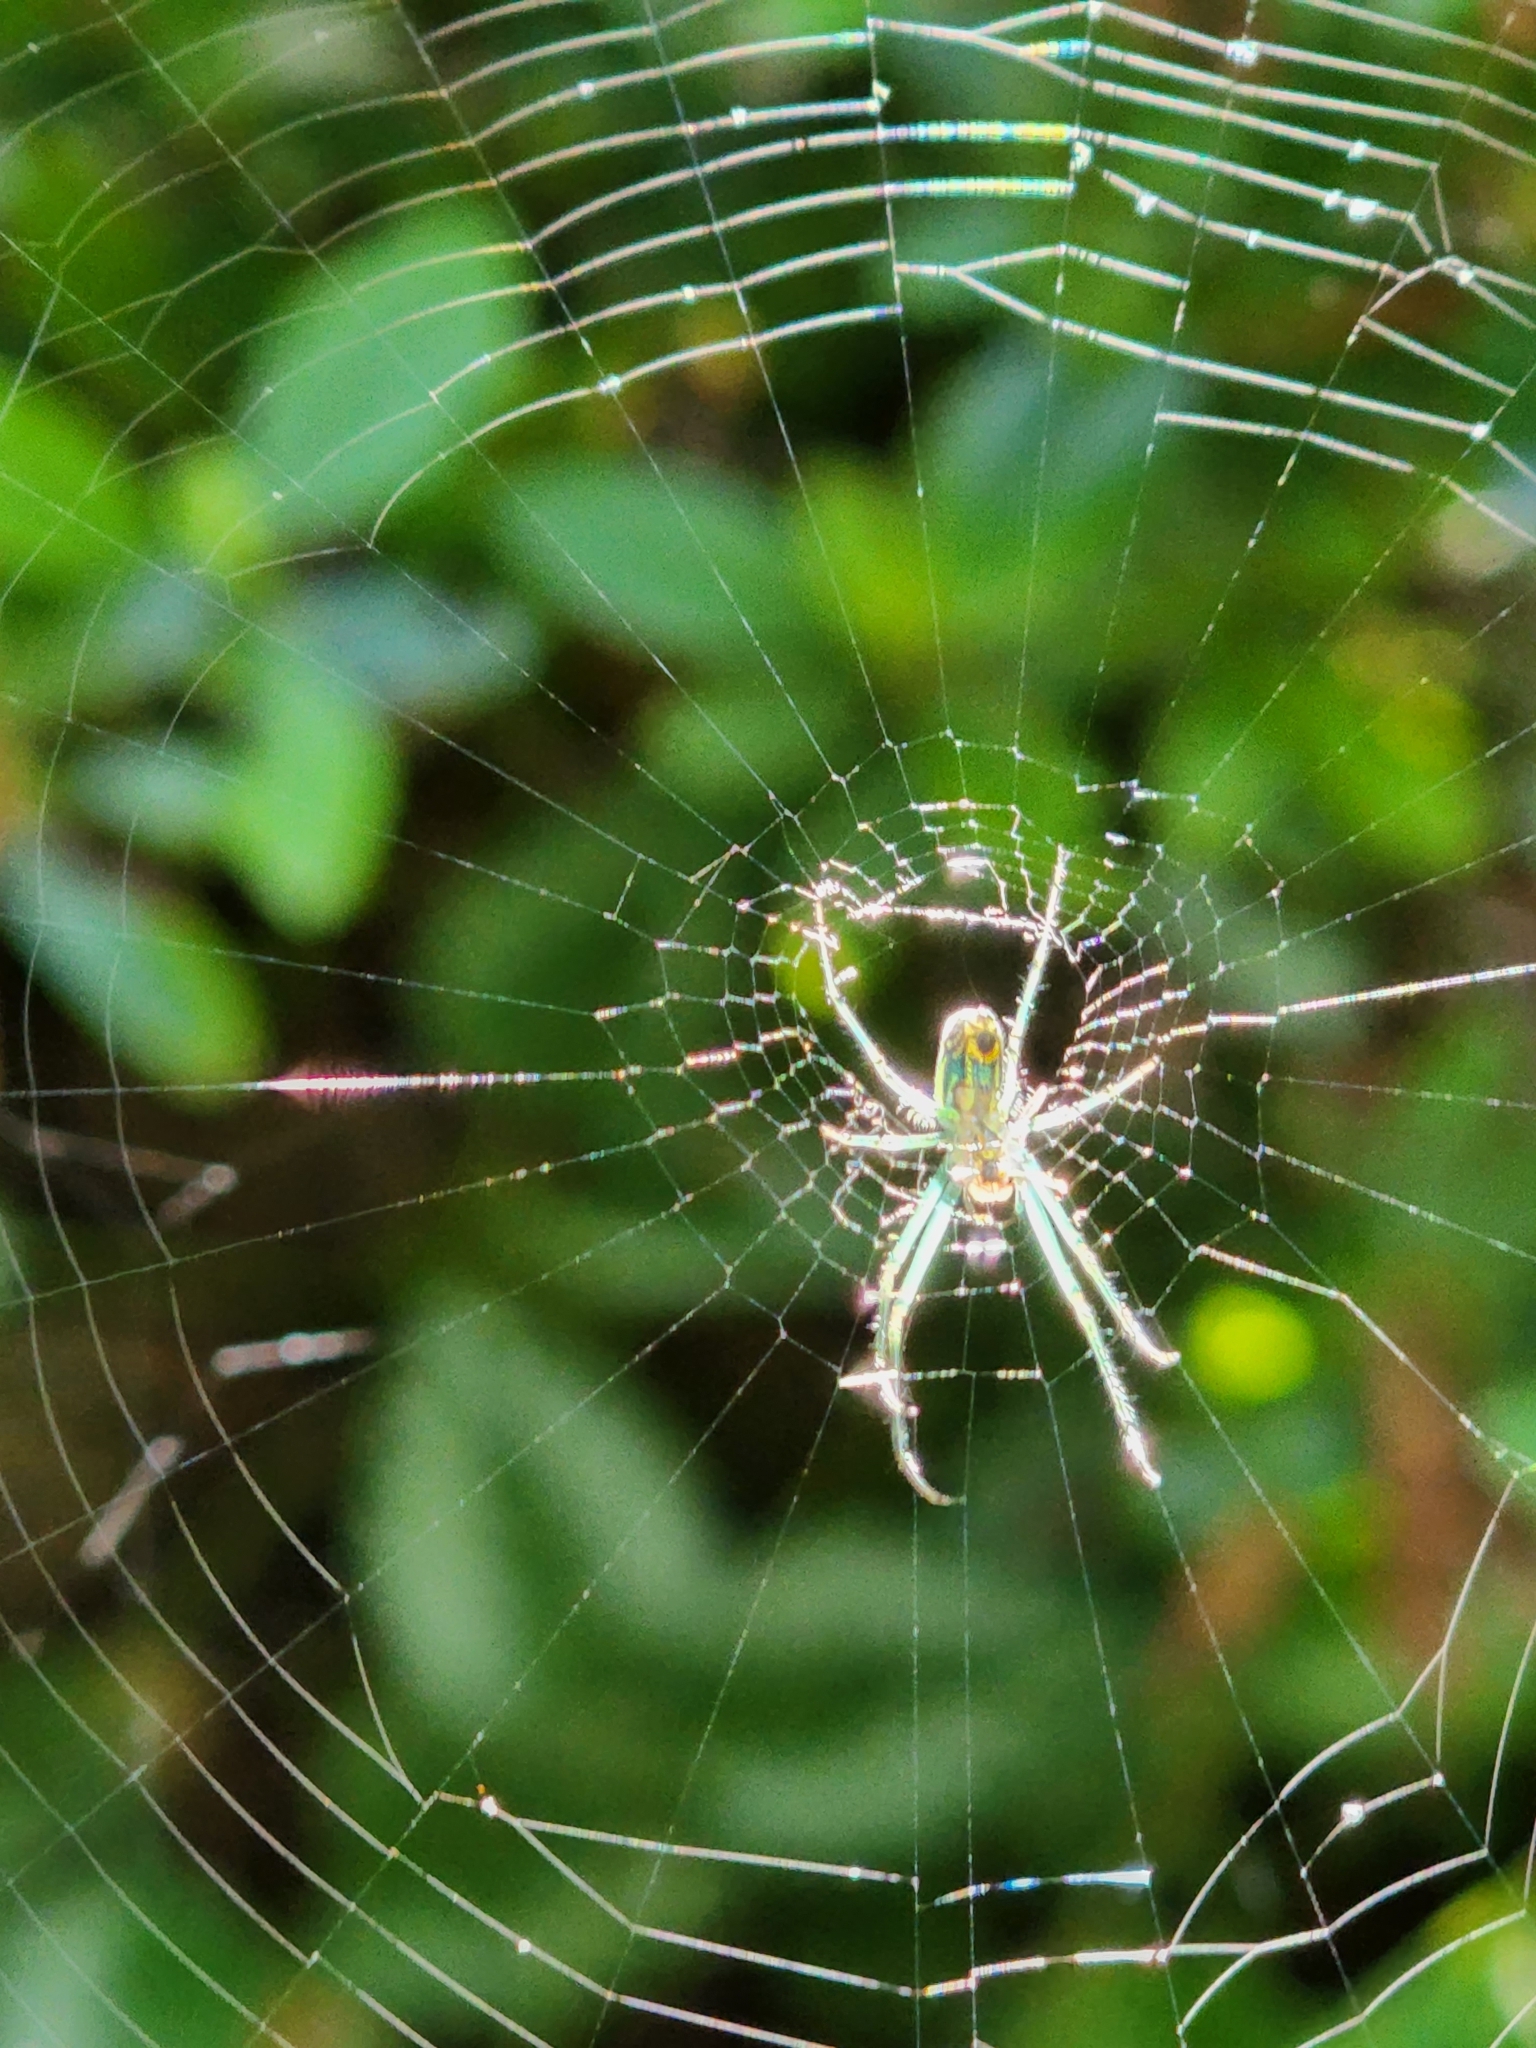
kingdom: Animalia
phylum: Arthropoda
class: Arachnida
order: Araneae
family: Tetragnathidae
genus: Leucauge
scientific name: Leucauge venusta
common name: Longjawed orb weavers
